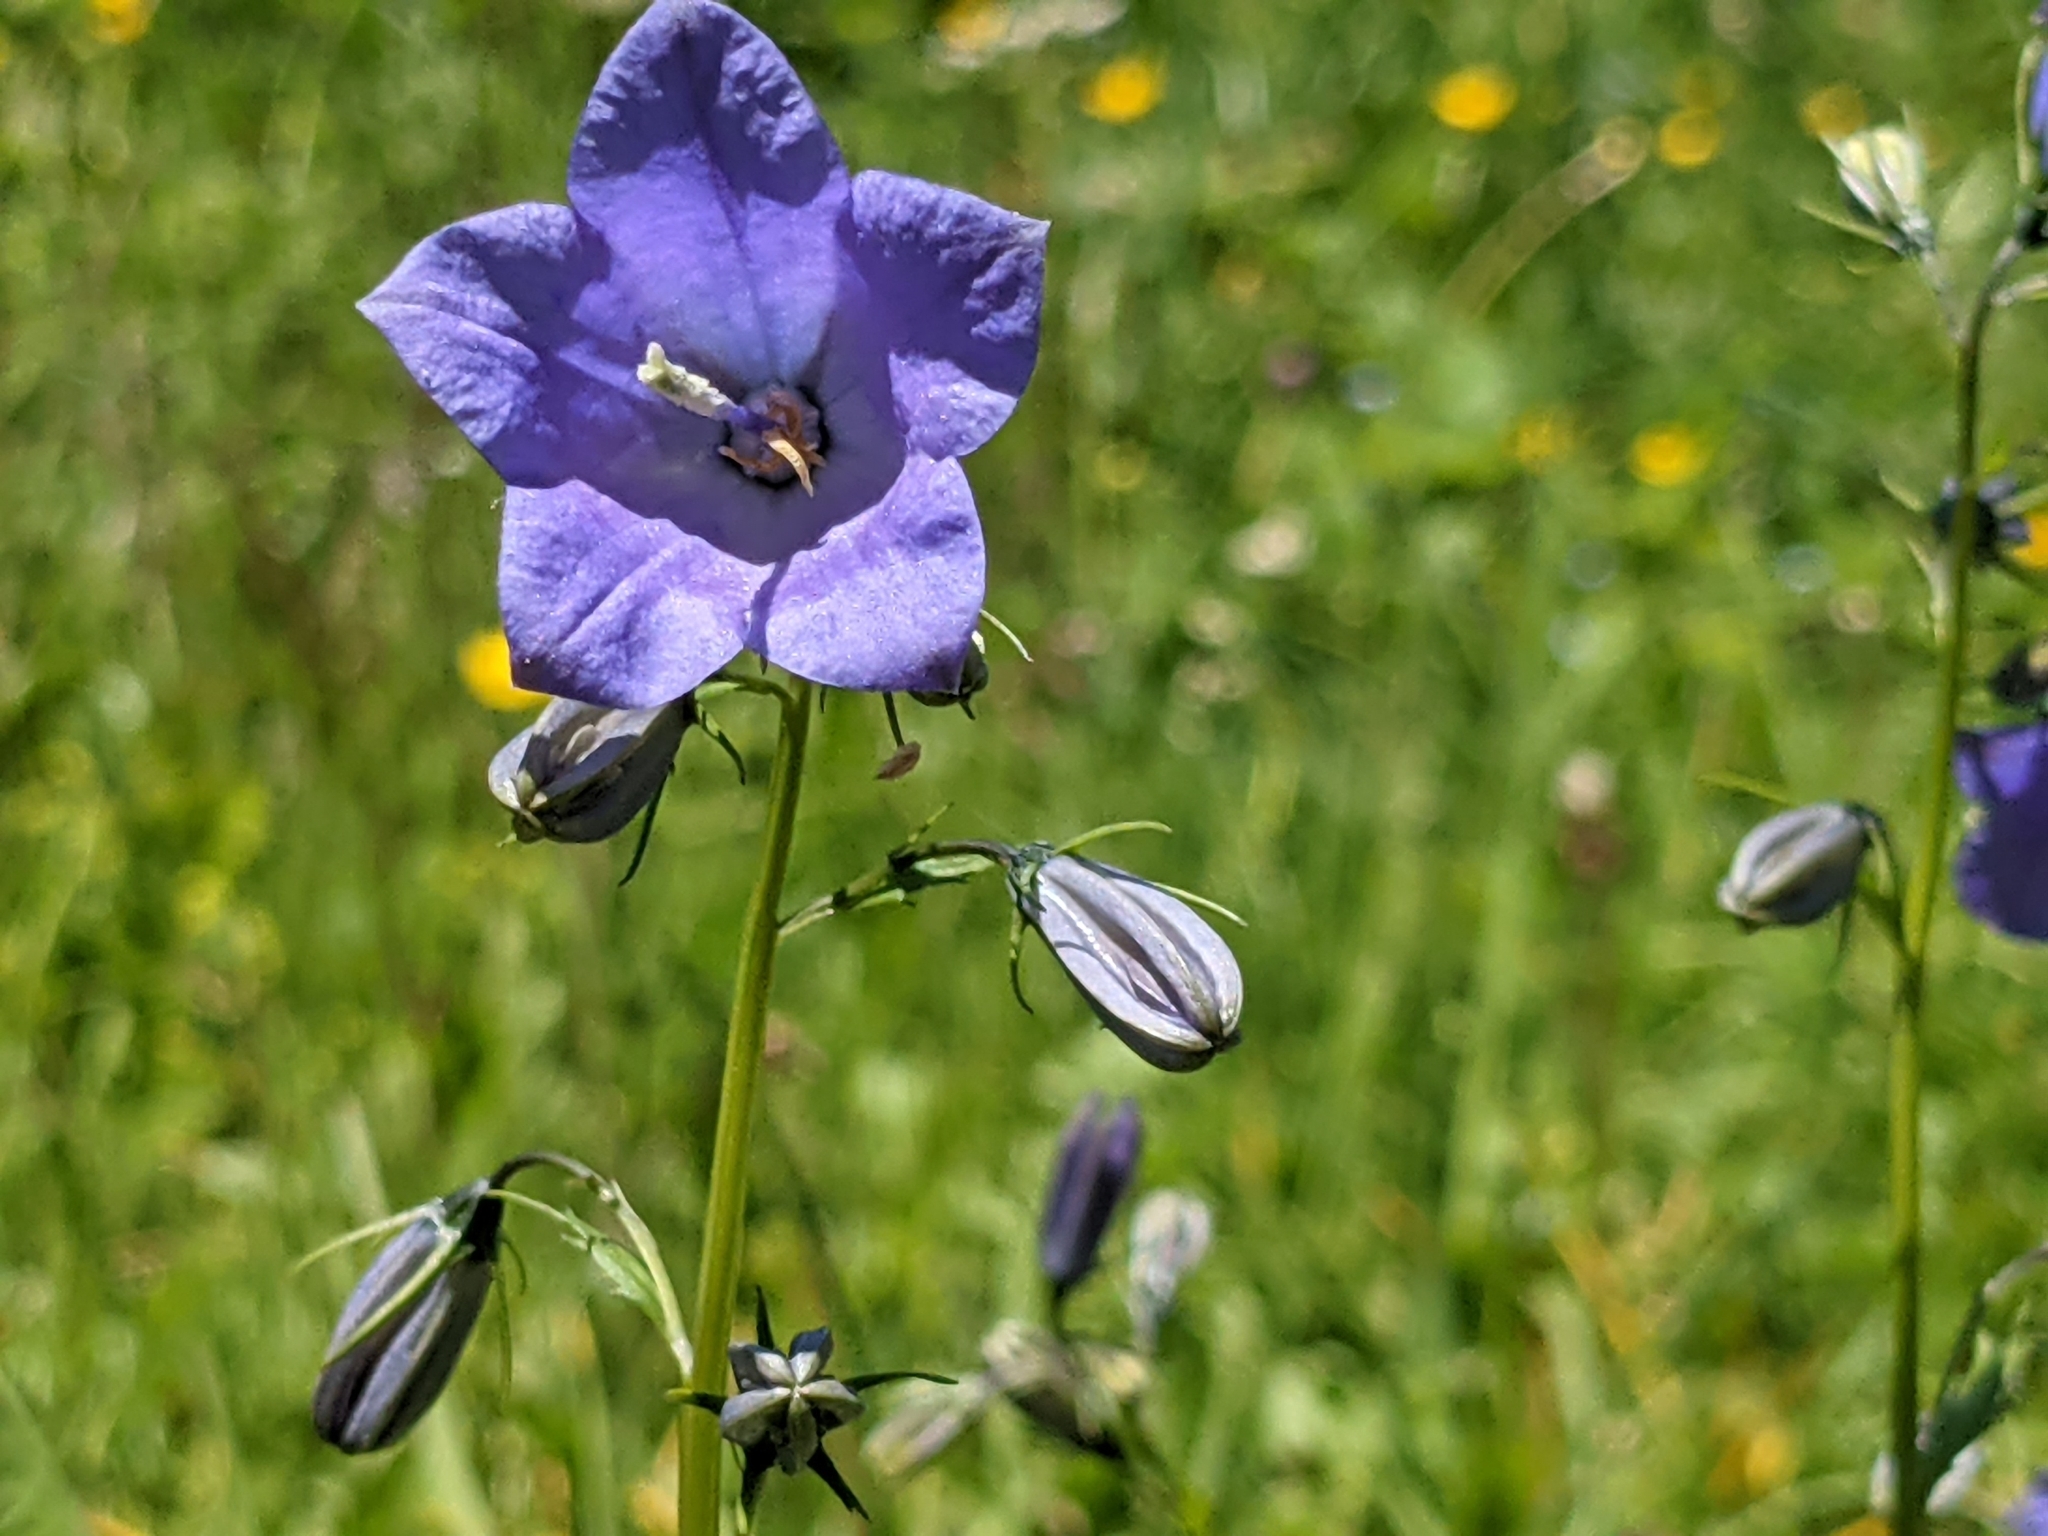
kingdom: Plantae
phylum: Tracheophyta
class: Magnoliopsida
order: Asterales
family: Campanulaceae
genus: Campanula
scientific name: Campanula rhomboidalis
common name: Broad-leaved harebell
